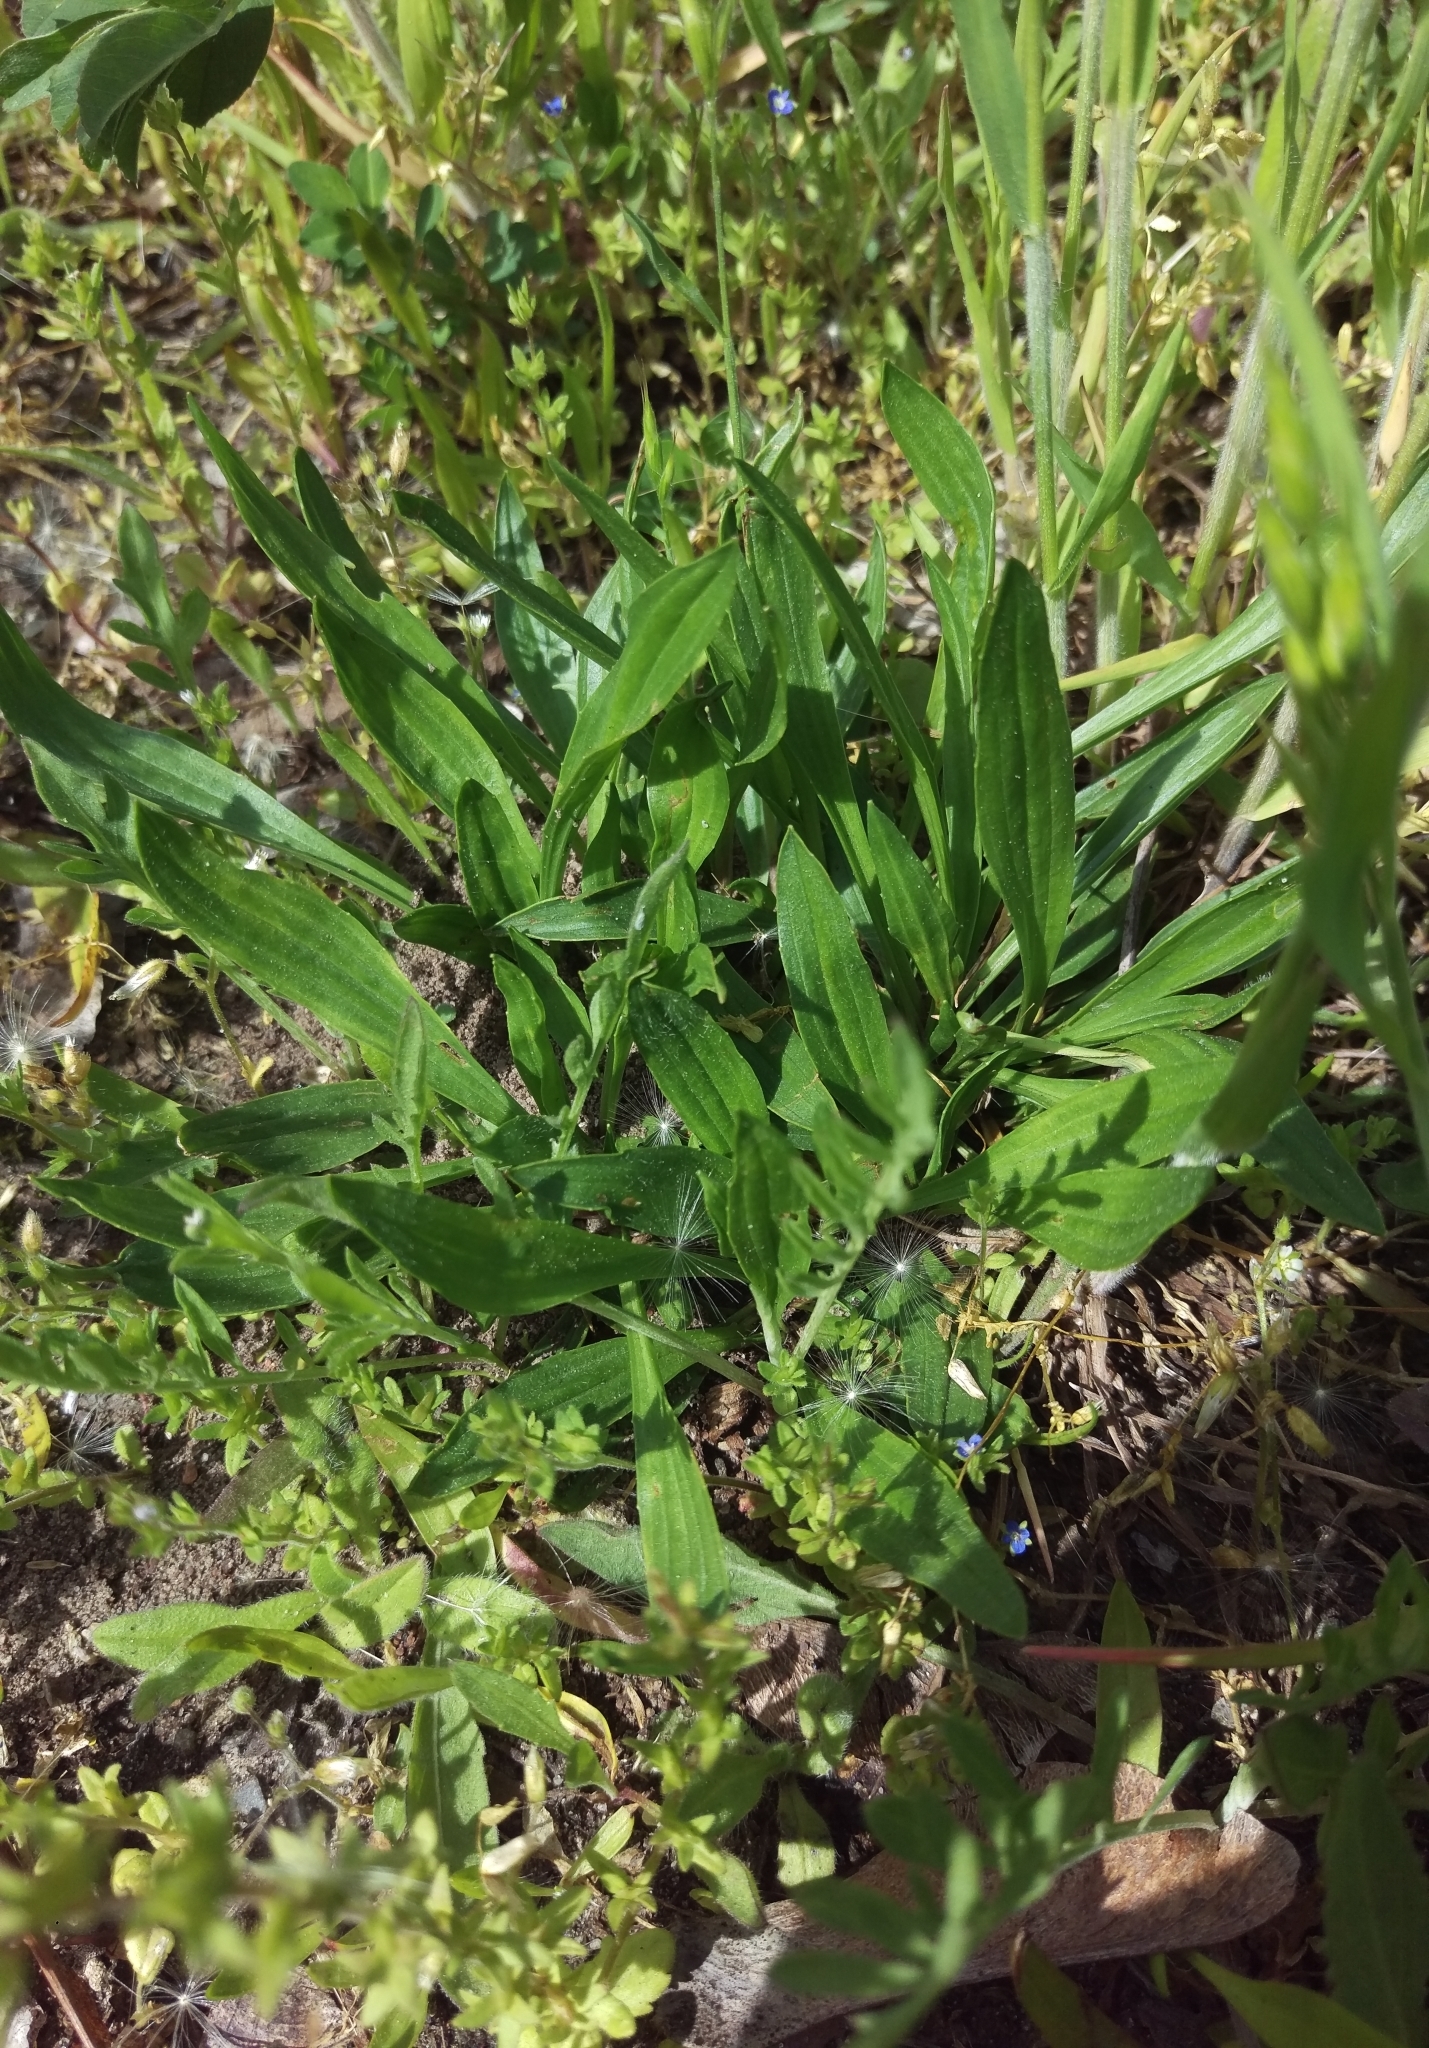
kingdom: Plantae
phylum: Tracheophyta
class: Magnoliopsida
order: Lamiales
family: Plantaginaceae
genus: Plantago
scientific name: Plantago lanceolata
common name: Ribwort plantain
